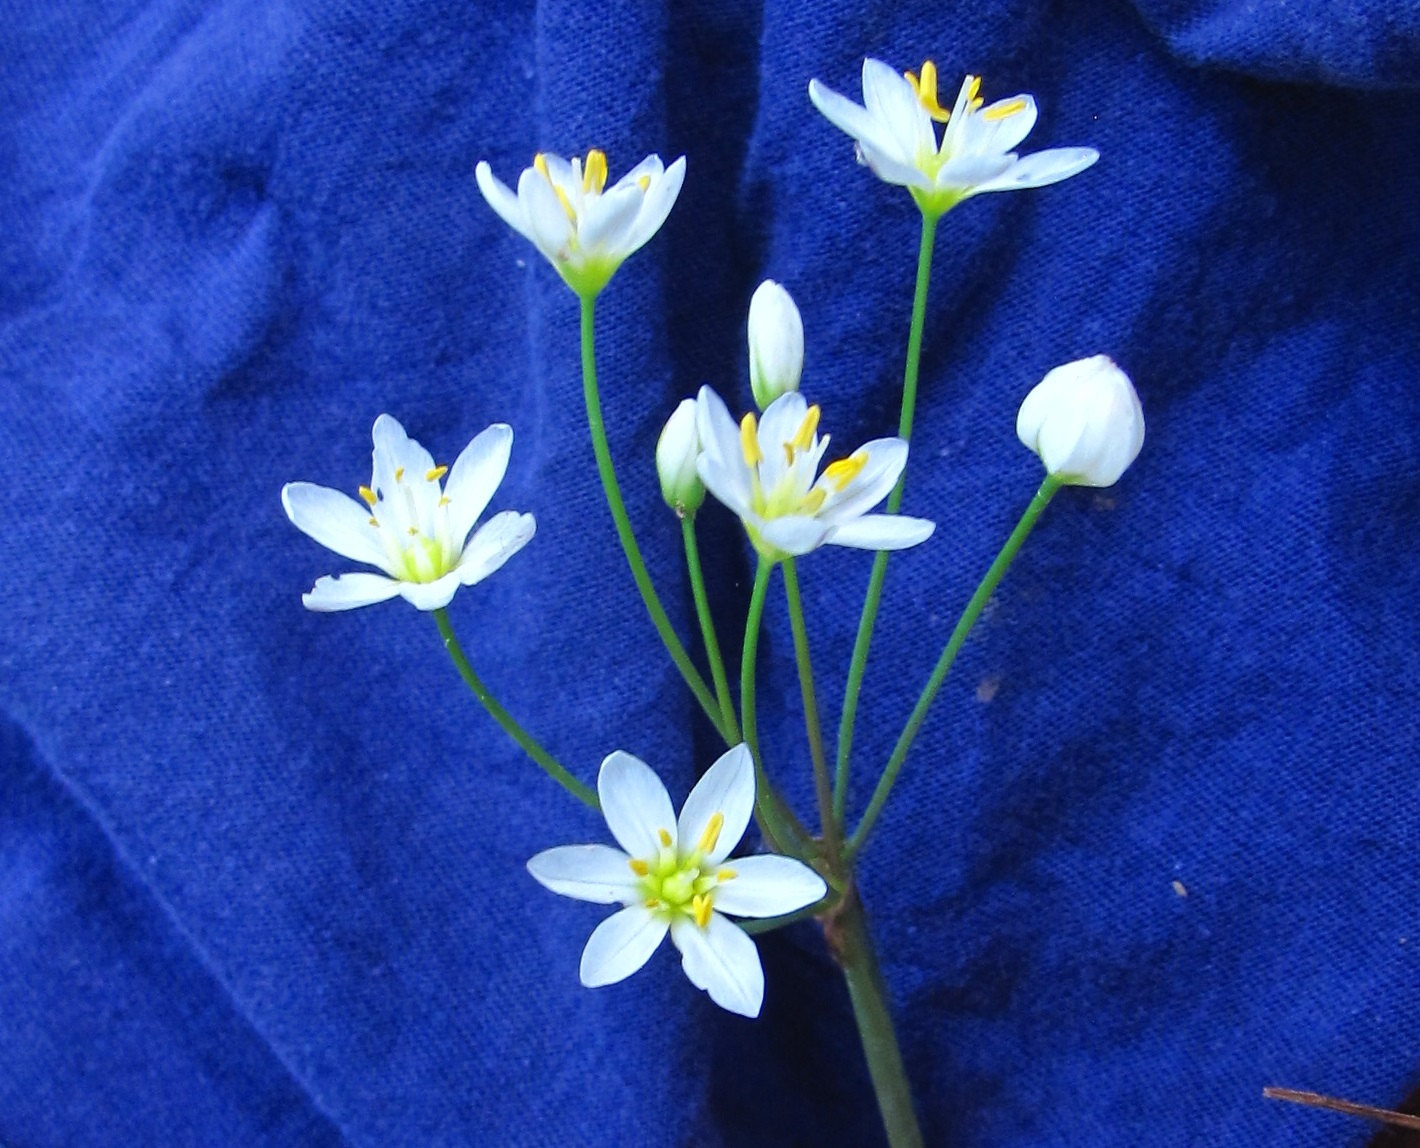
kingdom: Plantae
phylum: Tracheophyta
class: Liliopsida
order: Asparagales
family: Amaryllidaceae
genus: Nothoscordum
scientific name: Nothoscordum bivalve
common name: Crow-poison
